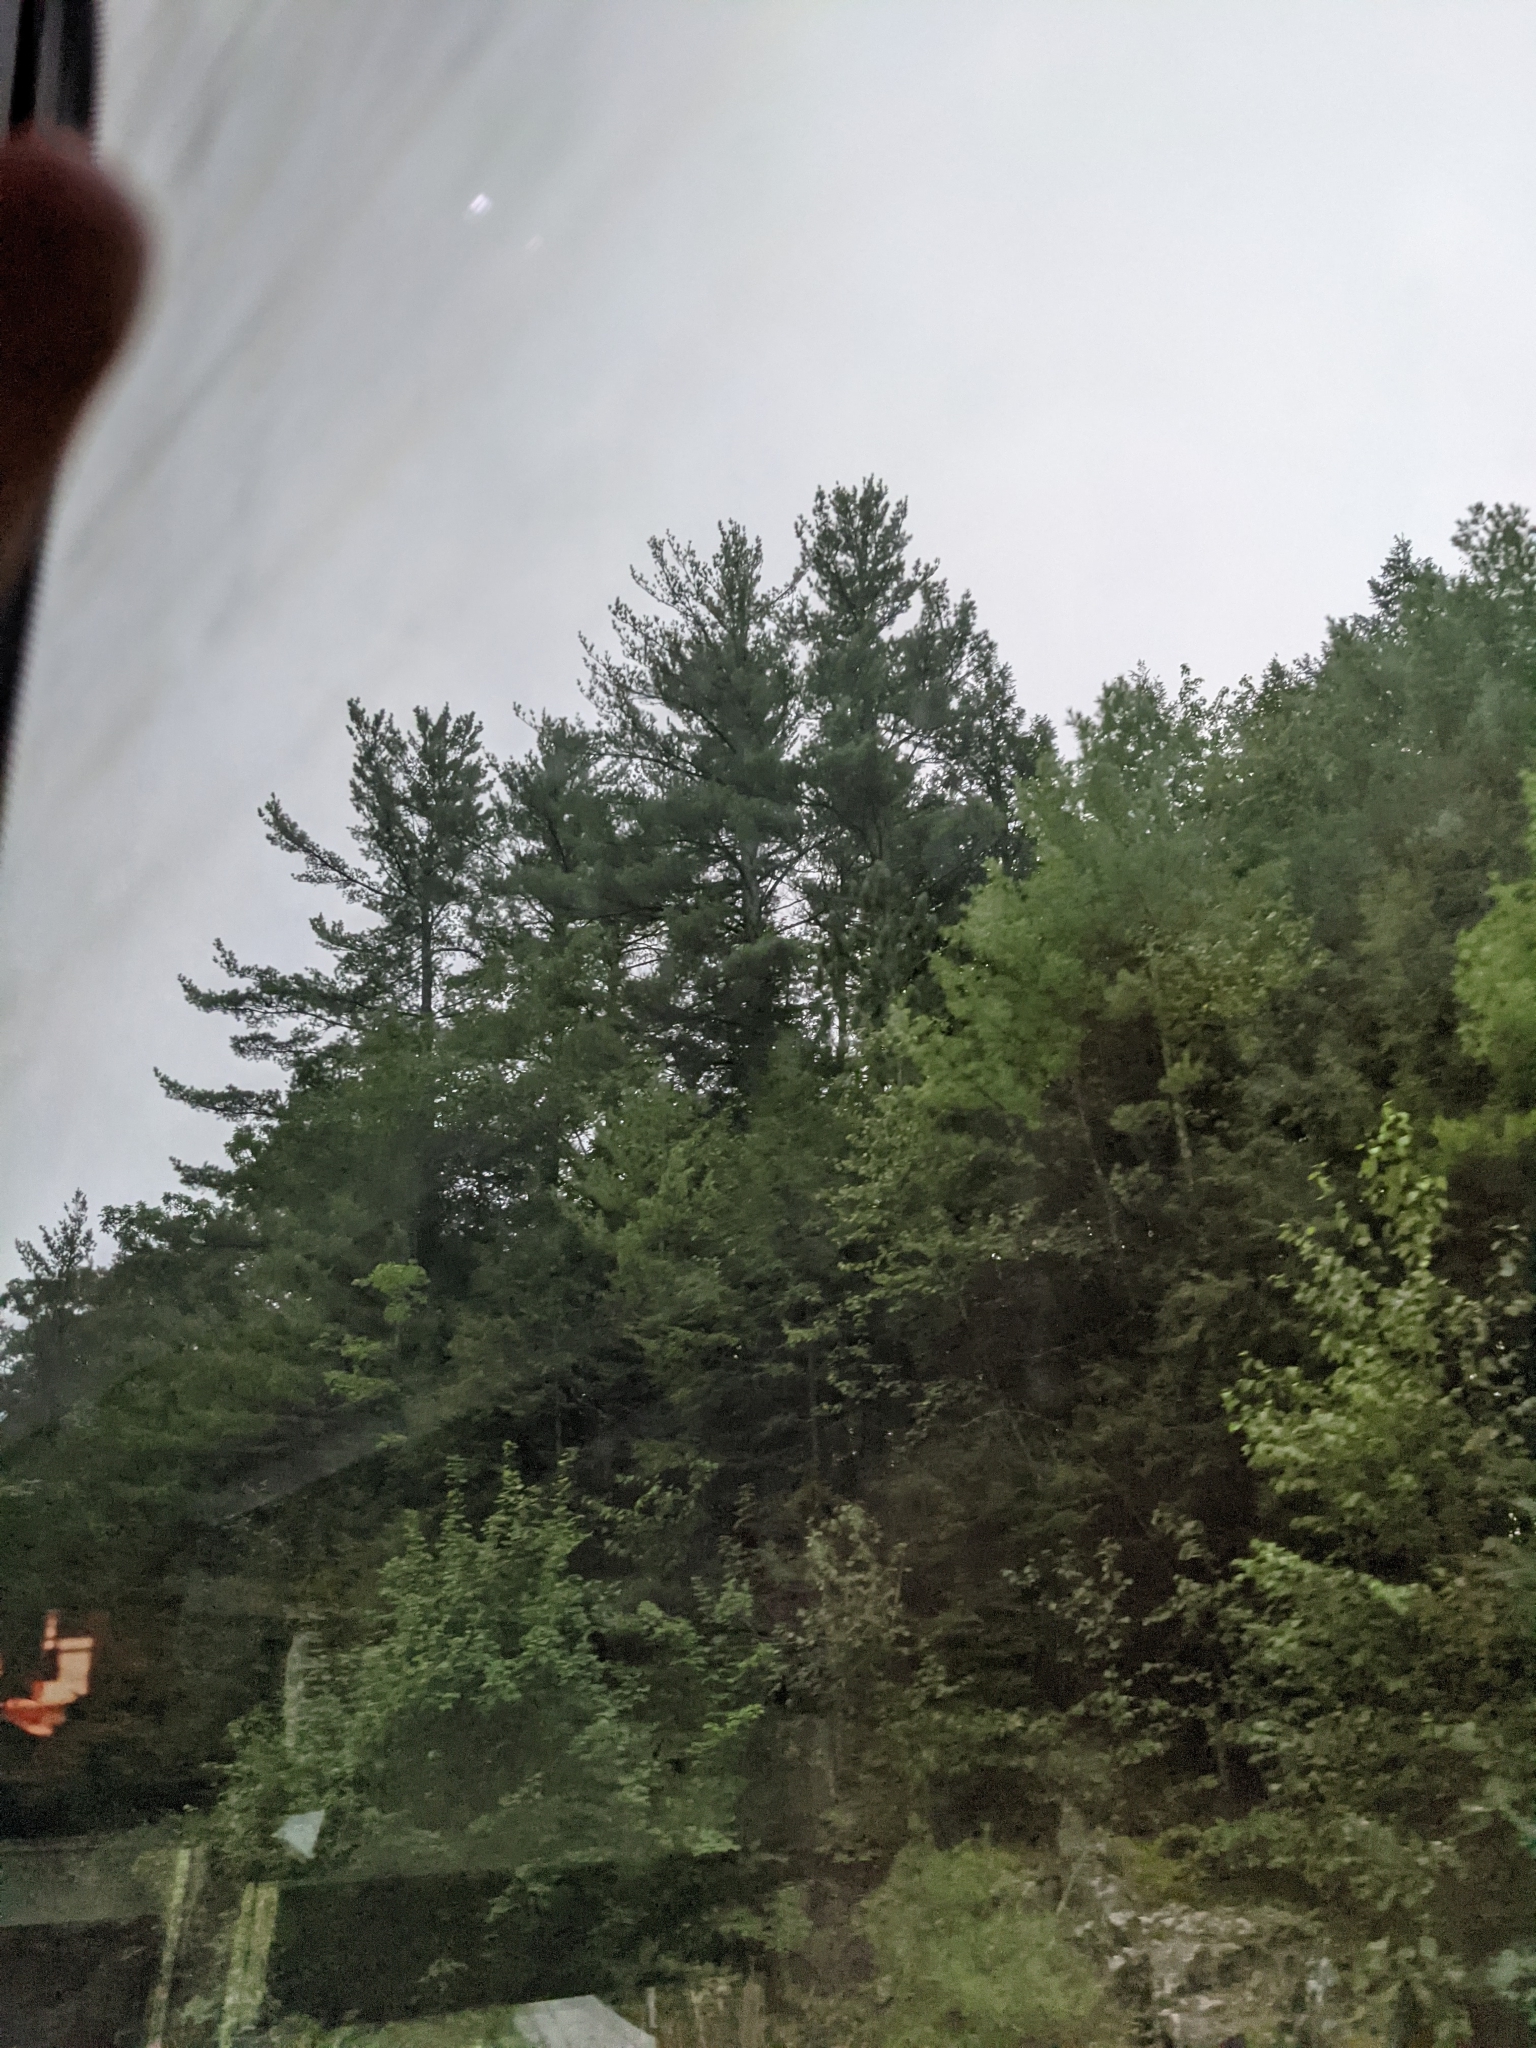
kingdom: Plantae
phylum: Tracheophyta
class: Pinopsida
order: Pinales
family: Pinaceae
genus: Pinus
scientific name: Pinus strobus
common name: Weymouth pine
